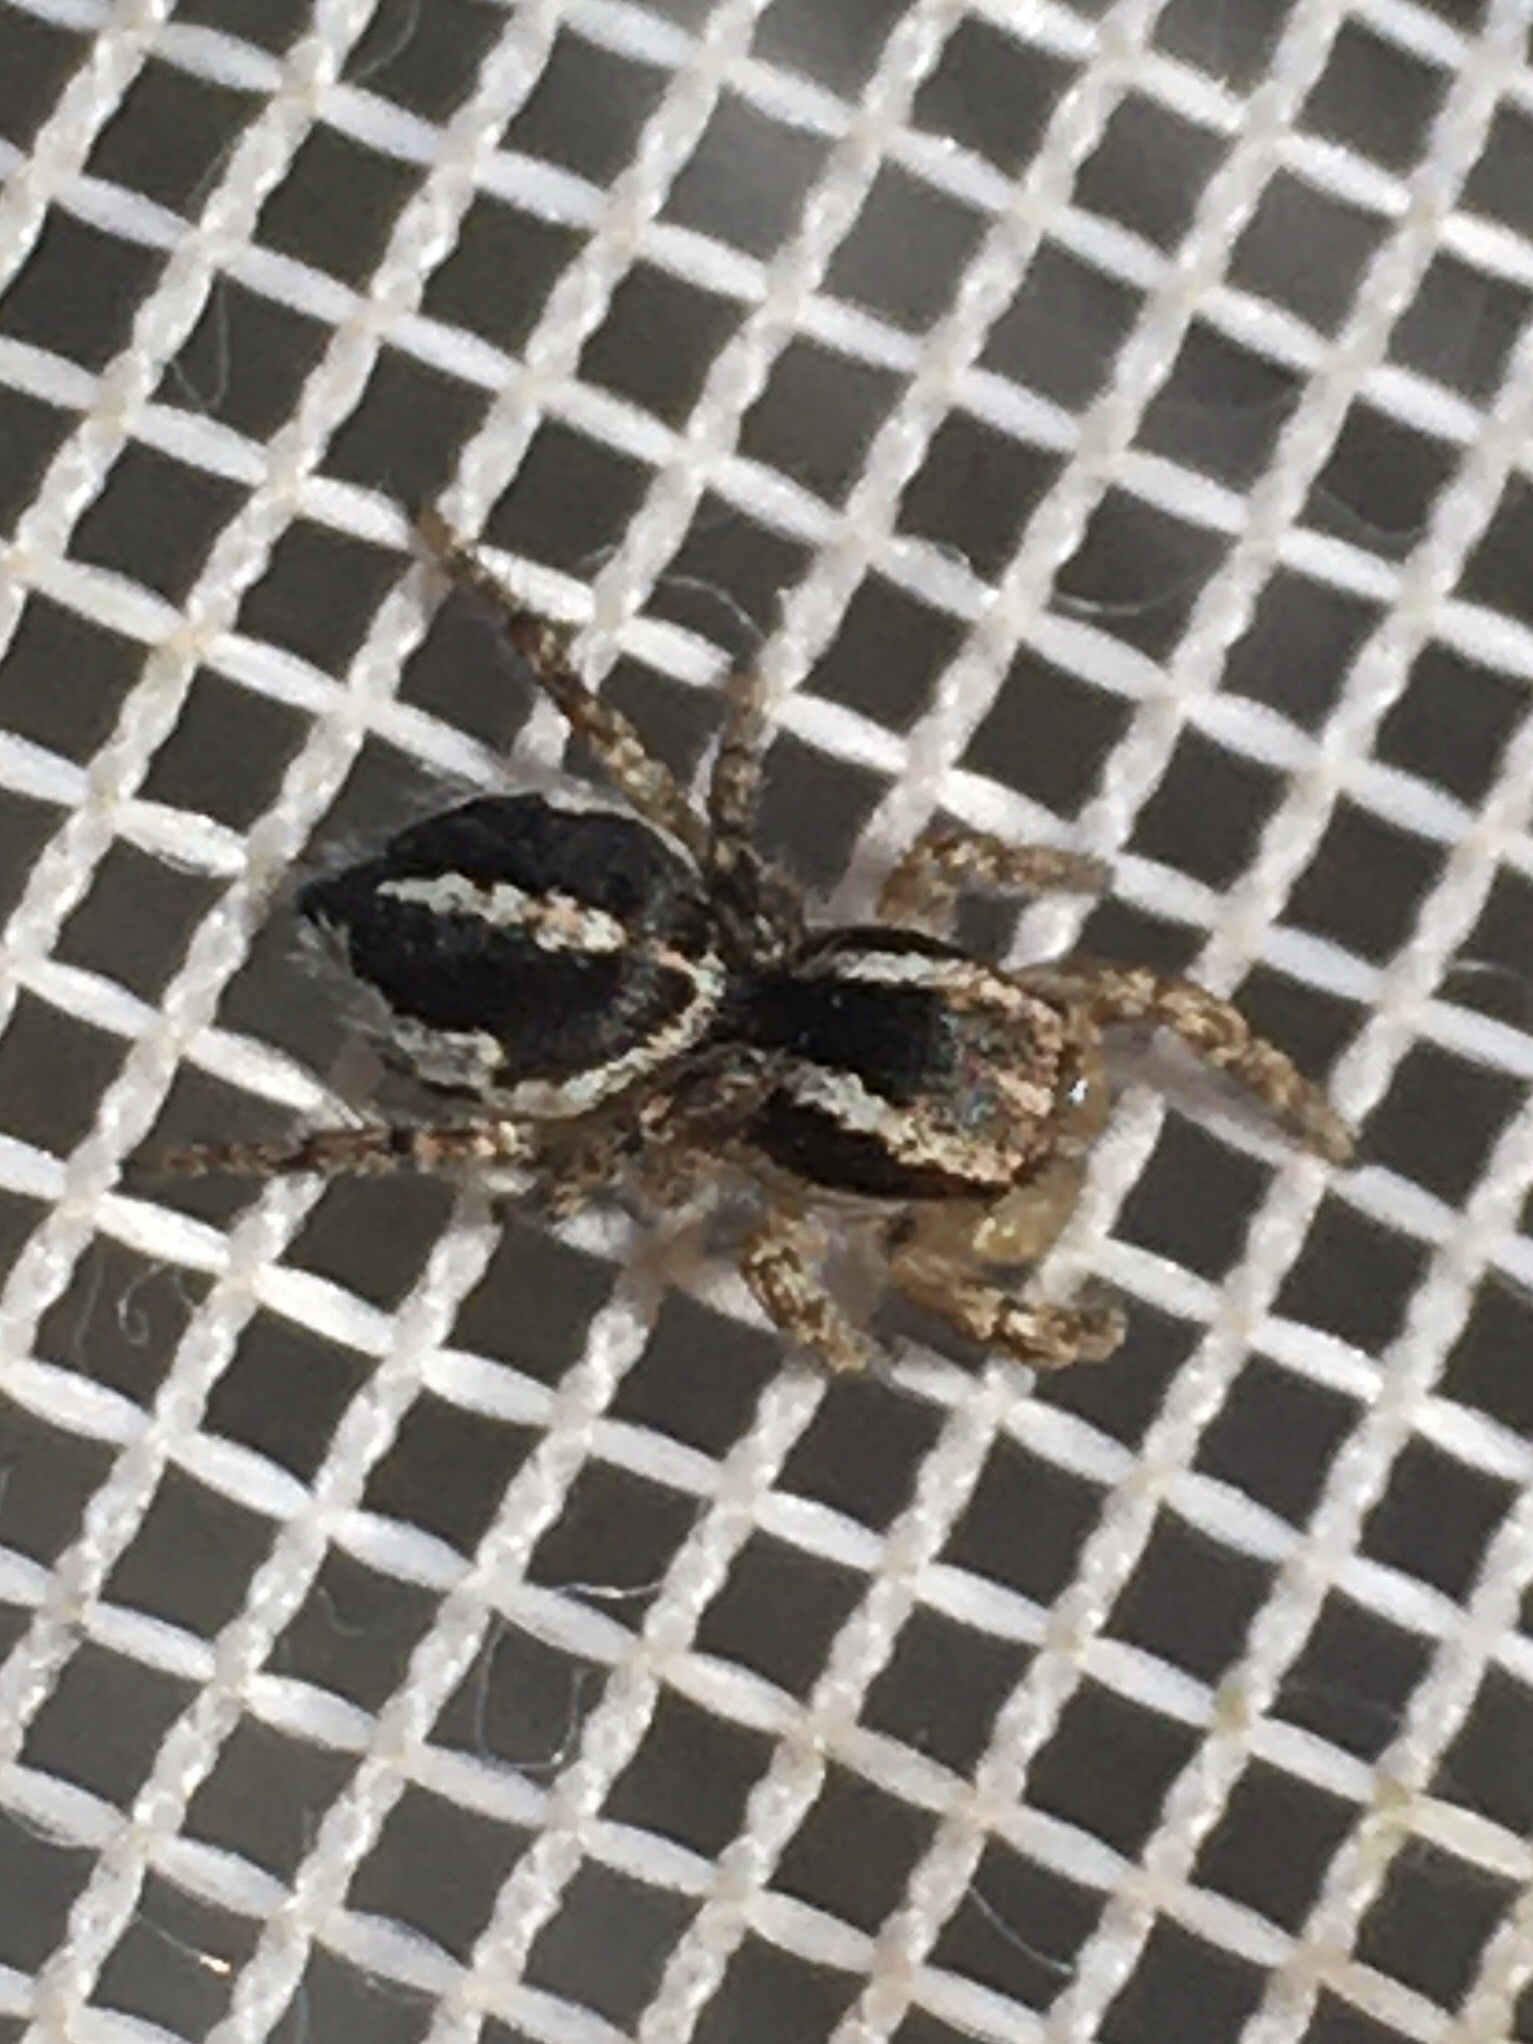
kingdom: Animalia
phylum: Arthropoda
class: Arachnida
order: Araneae
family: Salticidae
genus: Habronattus
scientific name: Habronattus cognatus
